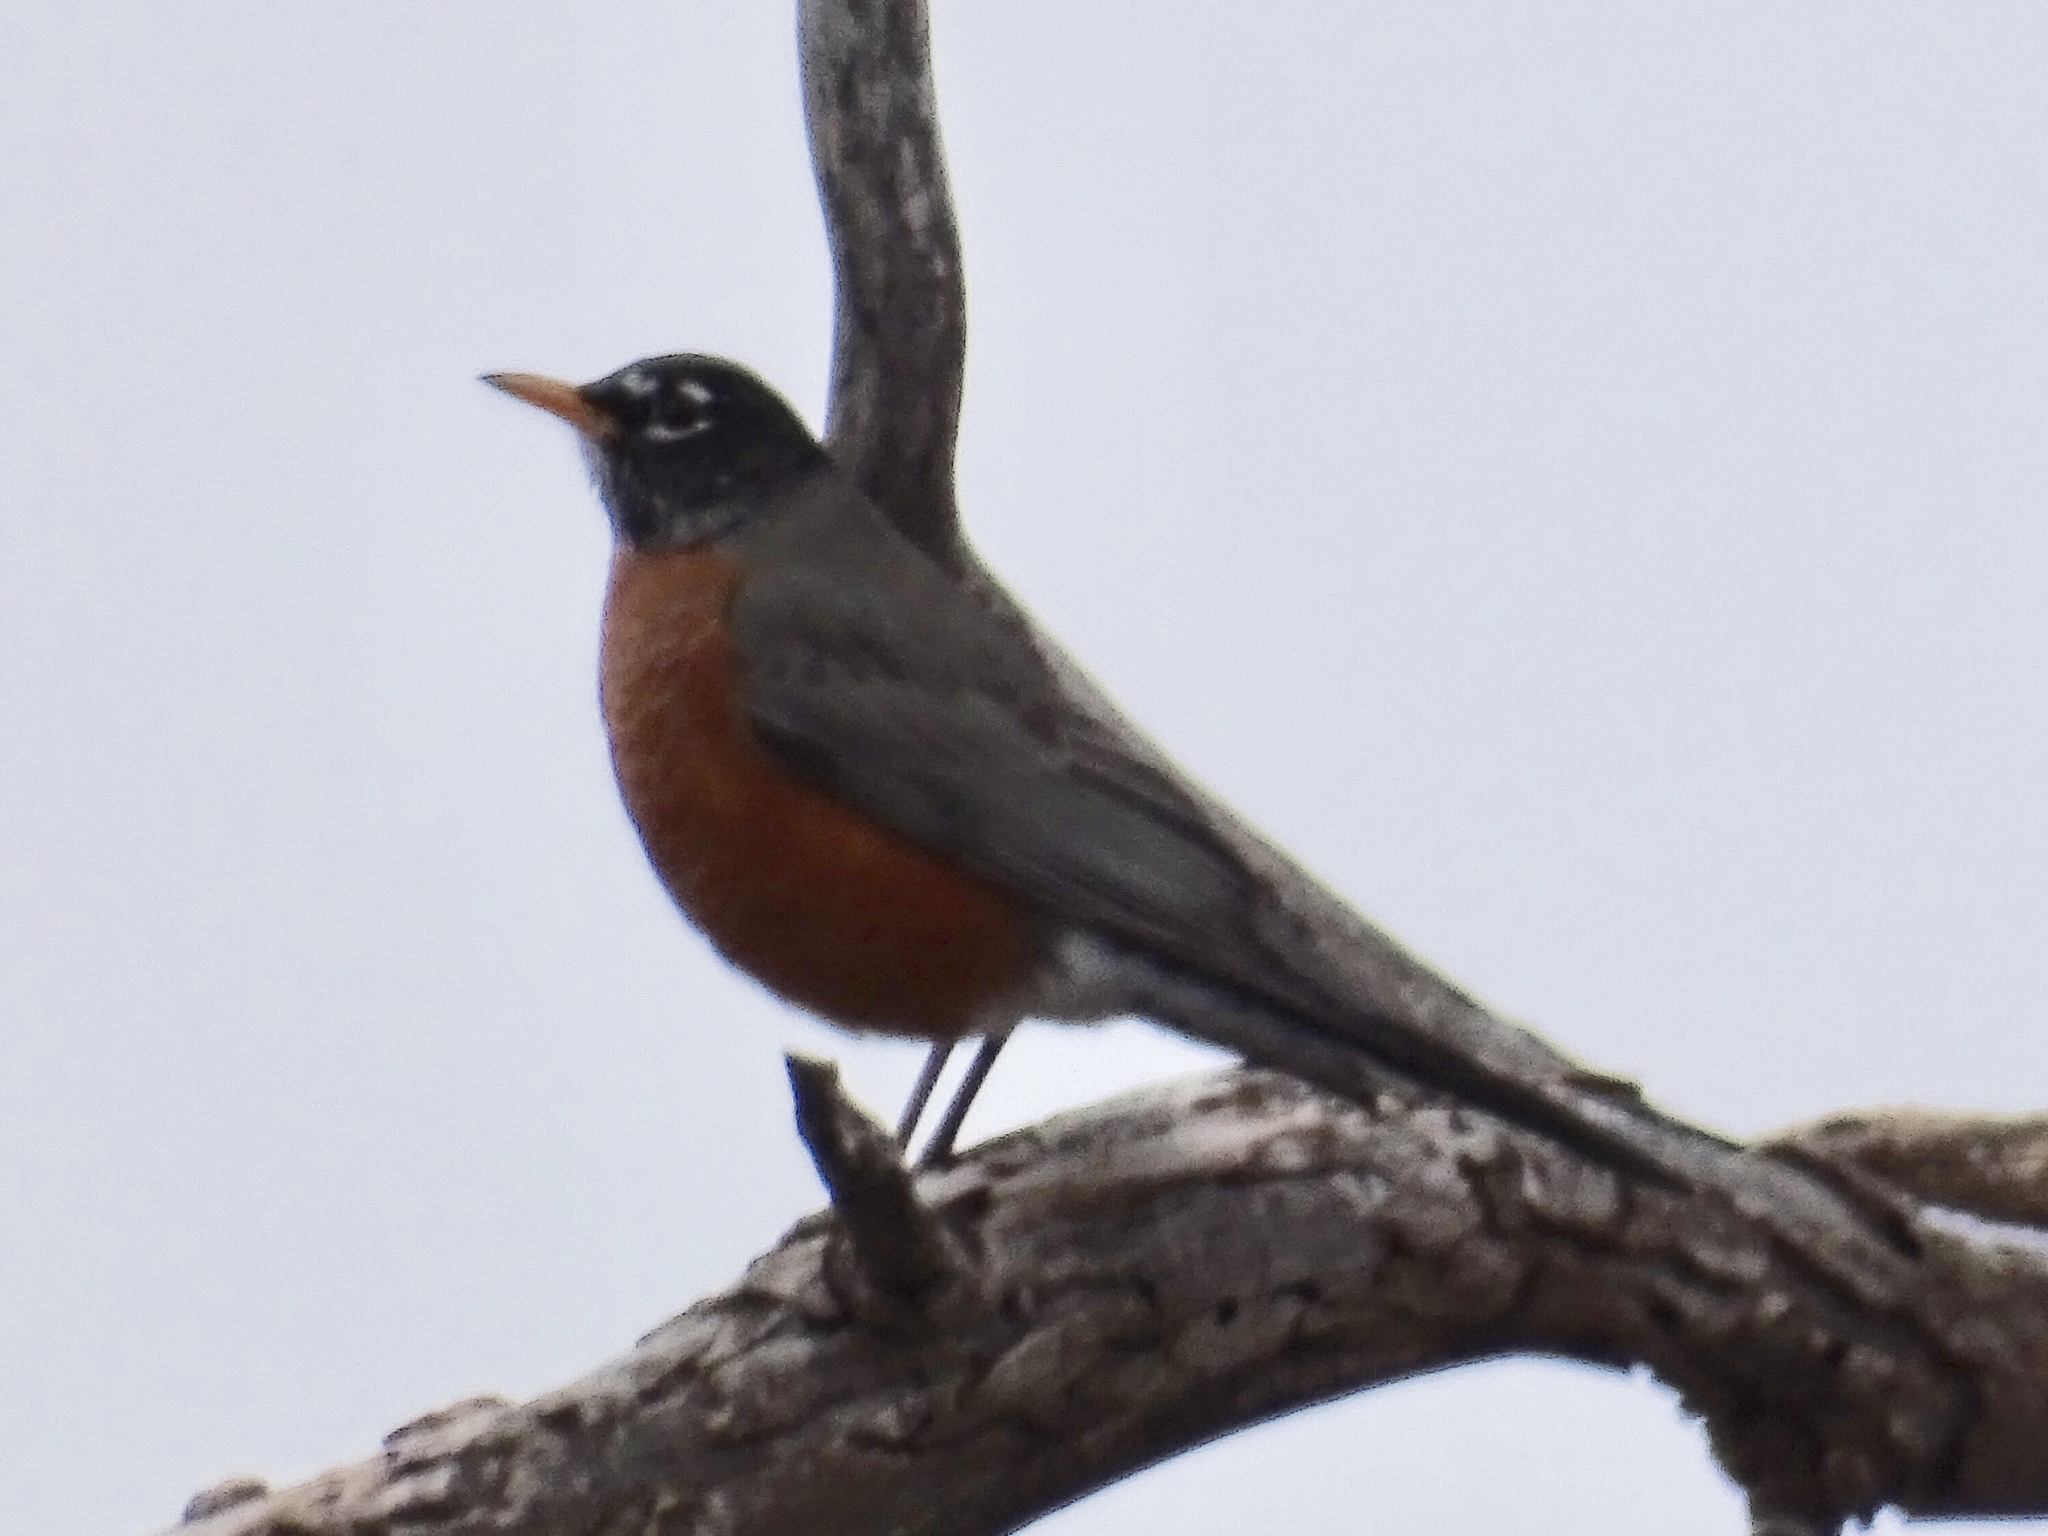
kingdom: Animalia
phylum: Chordata
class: Aves
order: Passeriformes
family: Turdidae
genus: Turdus
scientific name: Turdus migratorius
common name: American robin
